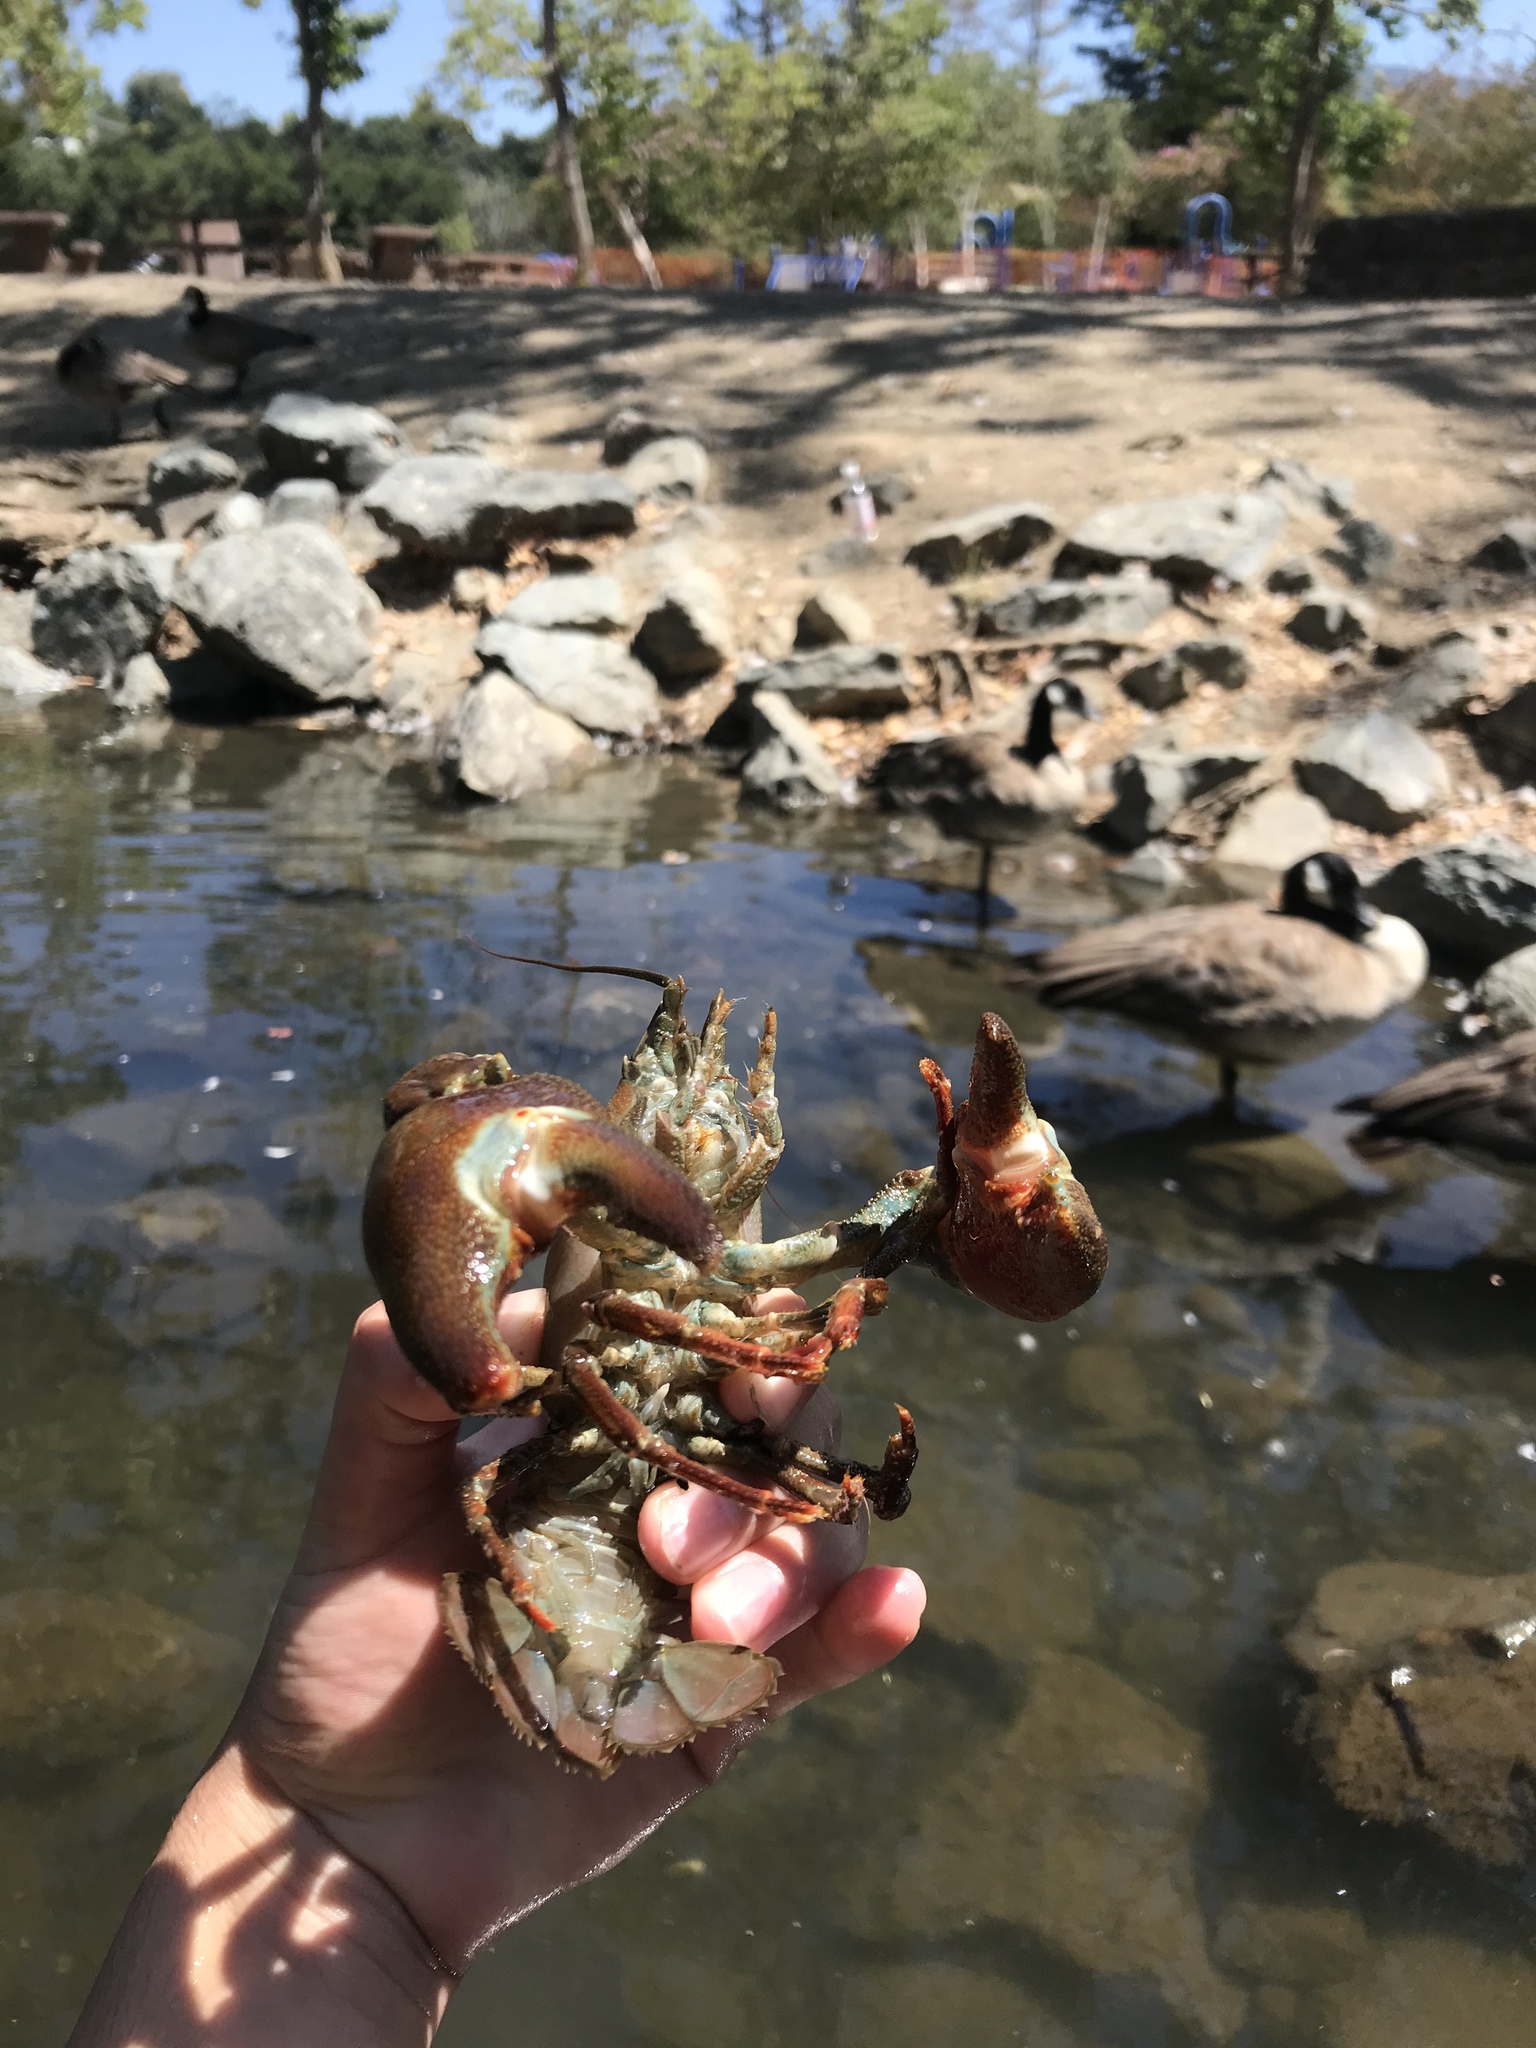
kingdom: Animalia
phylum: Arthropoda
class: Malacostraca
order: Decapoda
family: Astacidae
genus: Pacifastacus
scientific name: Pacifastacus leniusculus
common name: Signal crayfish
